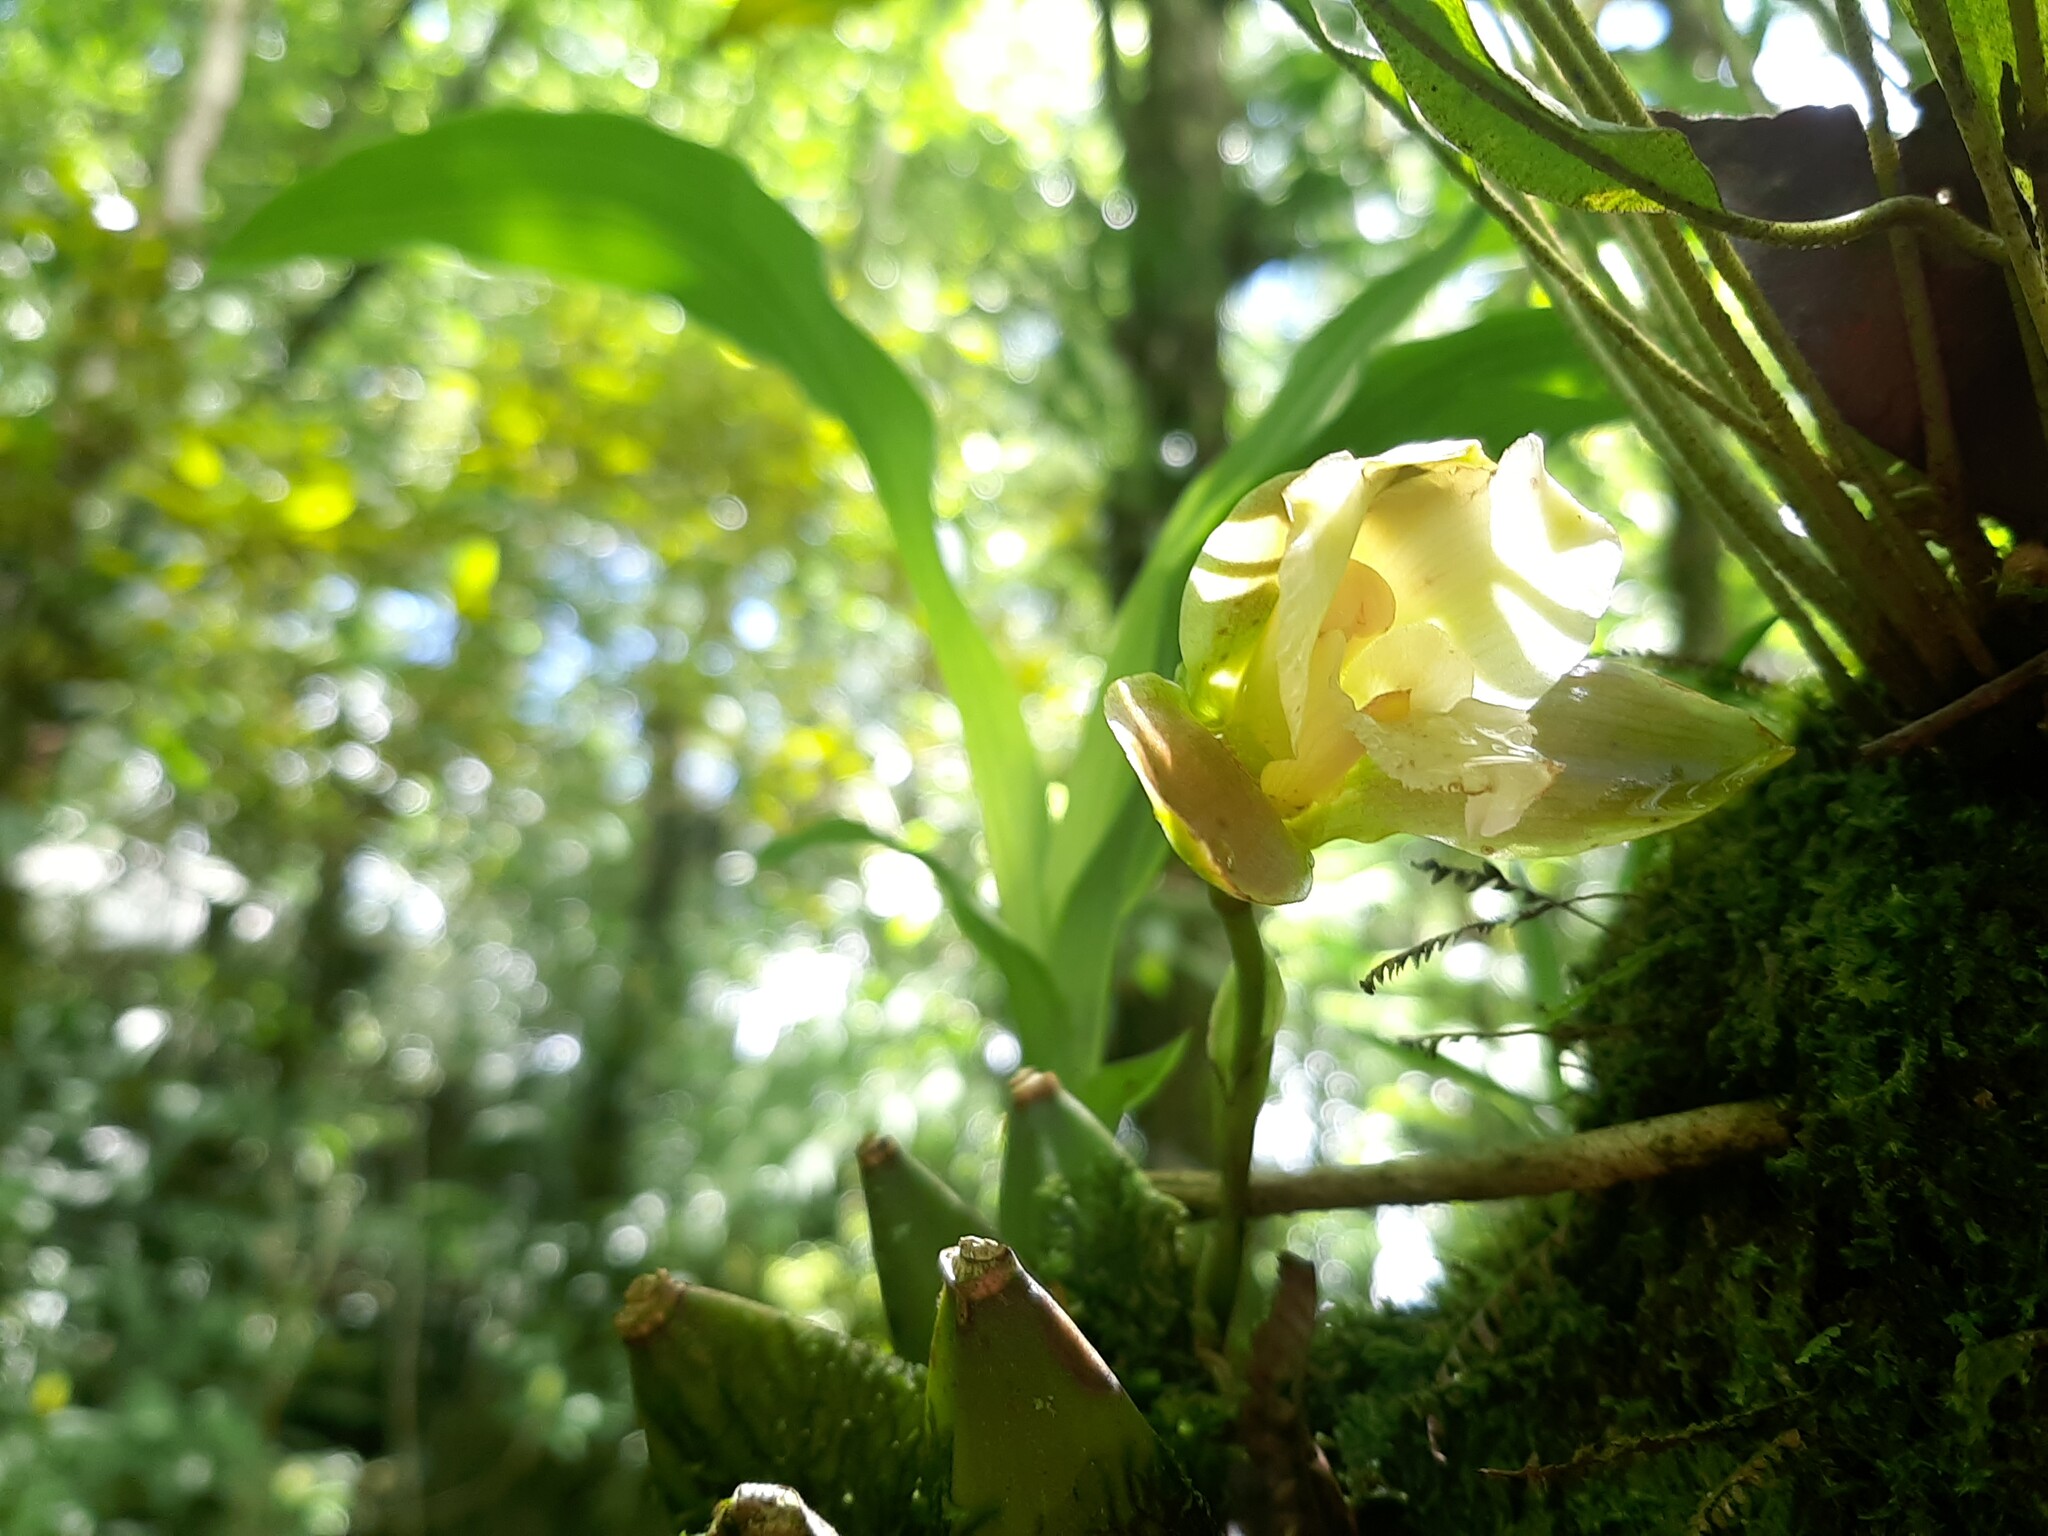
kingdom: Plantae
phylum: Tracheophyta
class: Liliopsida
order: Asparagales
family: Orchidaceae
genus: Lycaste
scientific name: Lycaste dowiana
